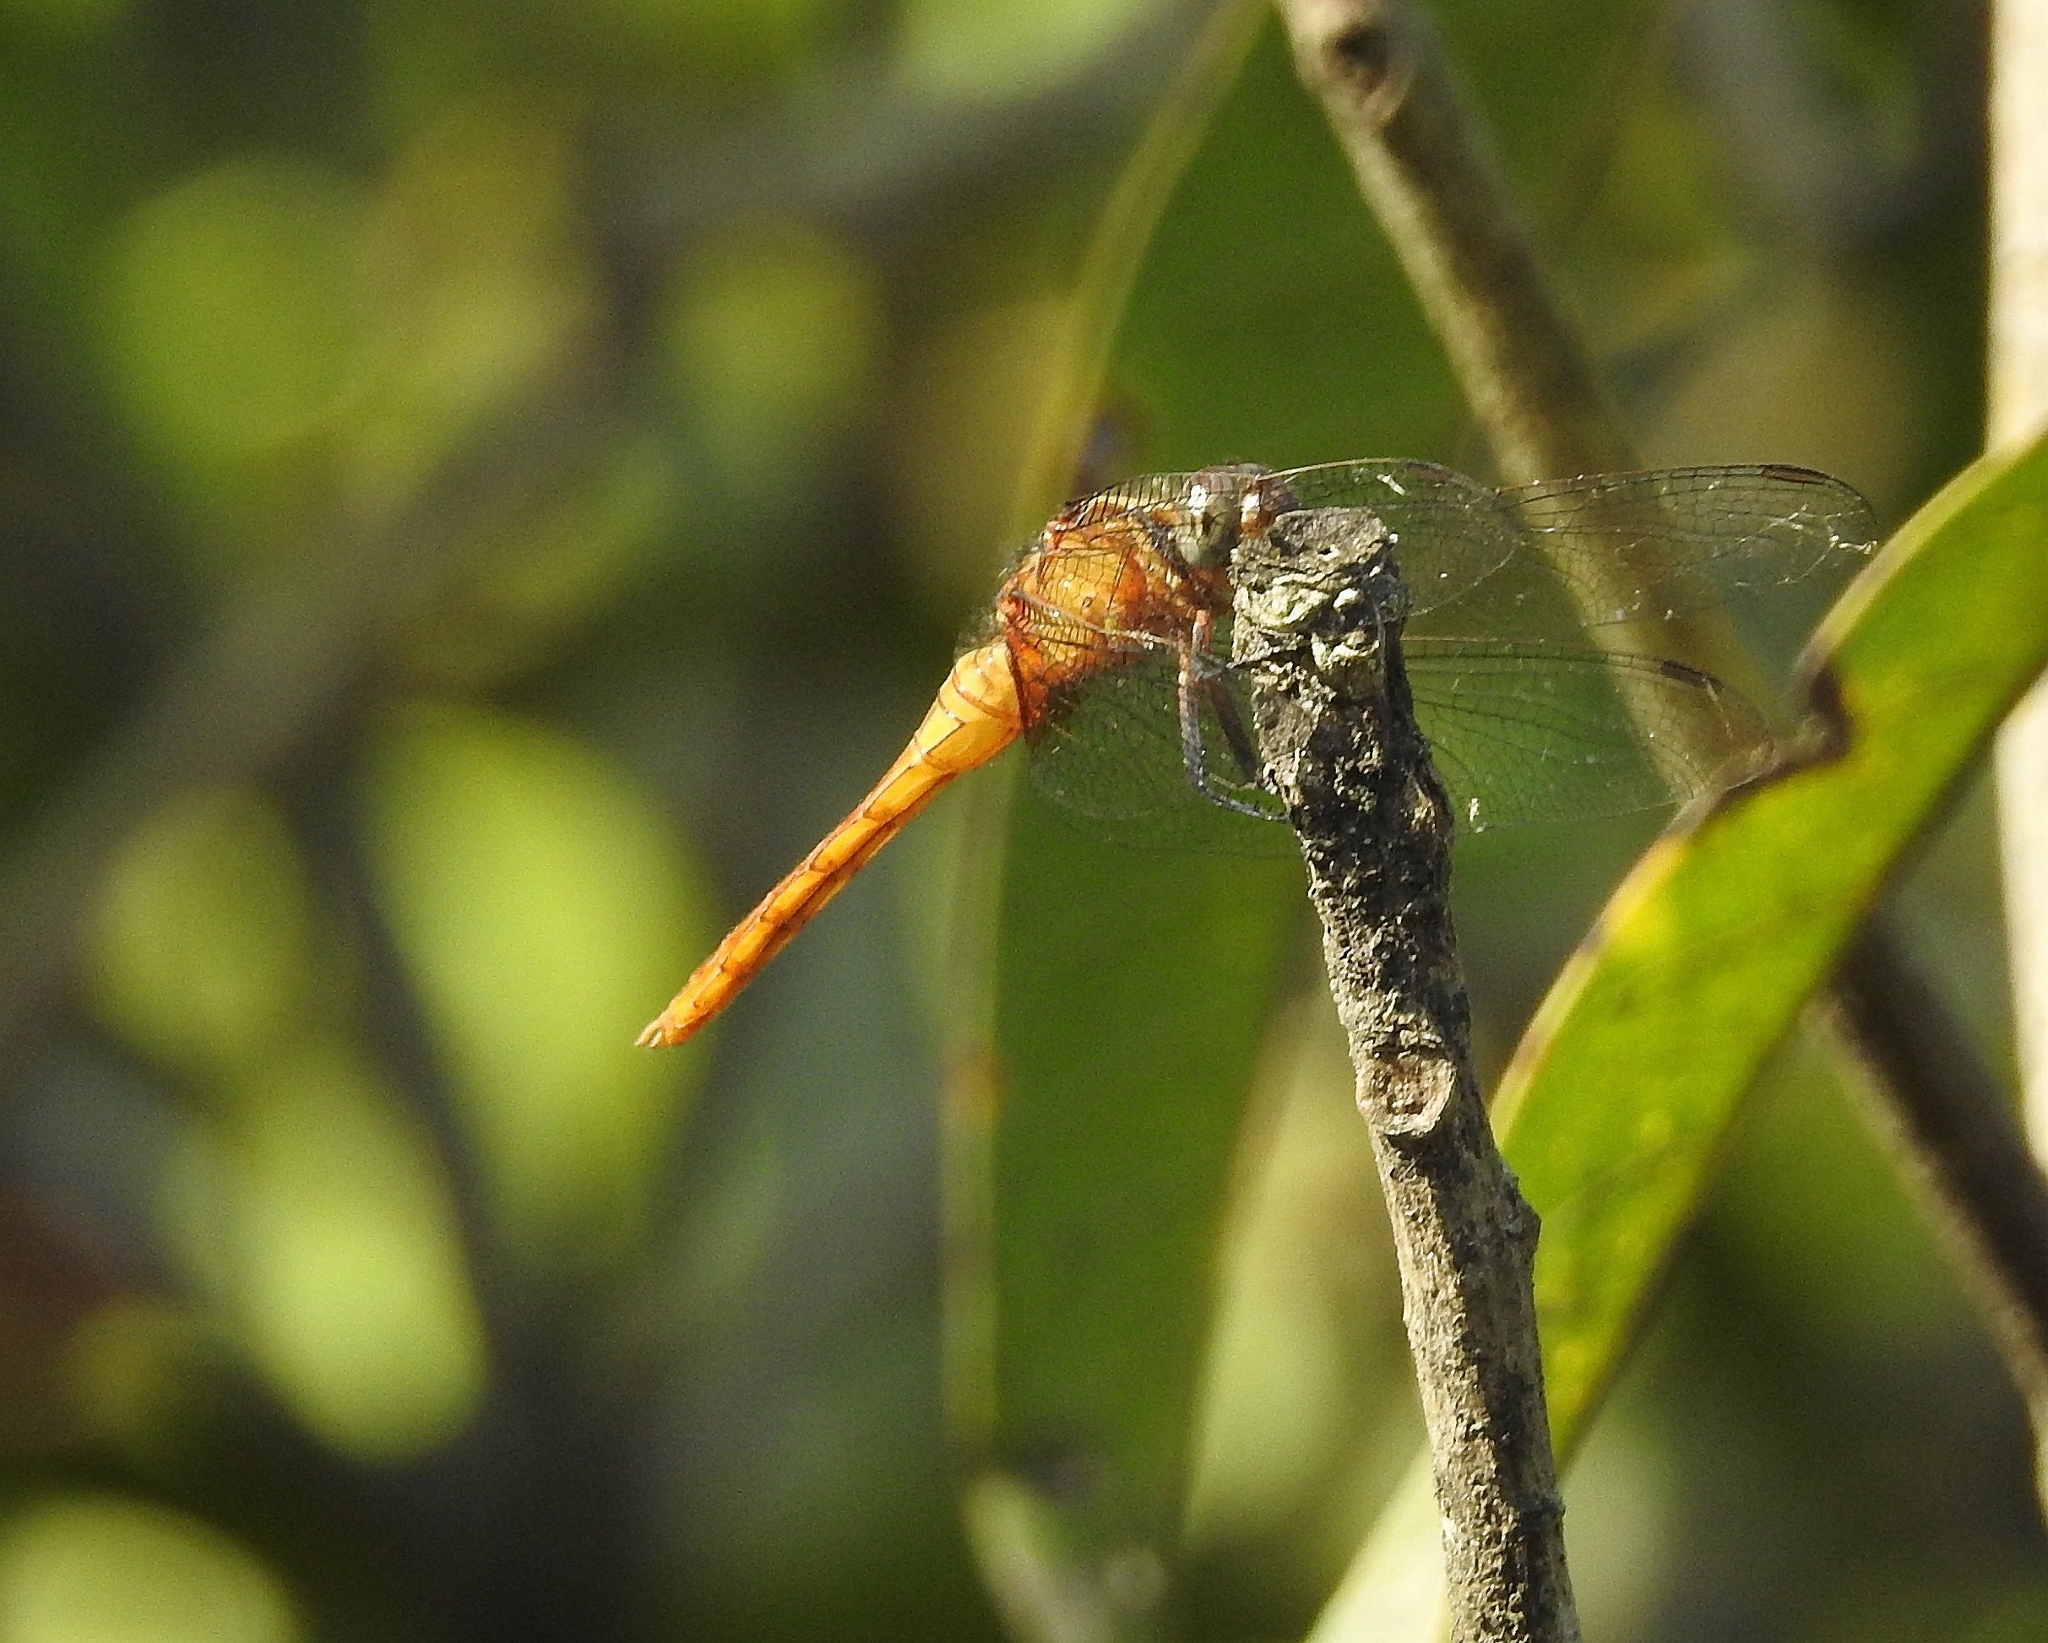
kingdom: Animalia
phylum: Arthropoda
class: Insecta
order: Odonata
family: Libellulidae
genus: Orthetrum
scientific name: Orthetrum chrysis
